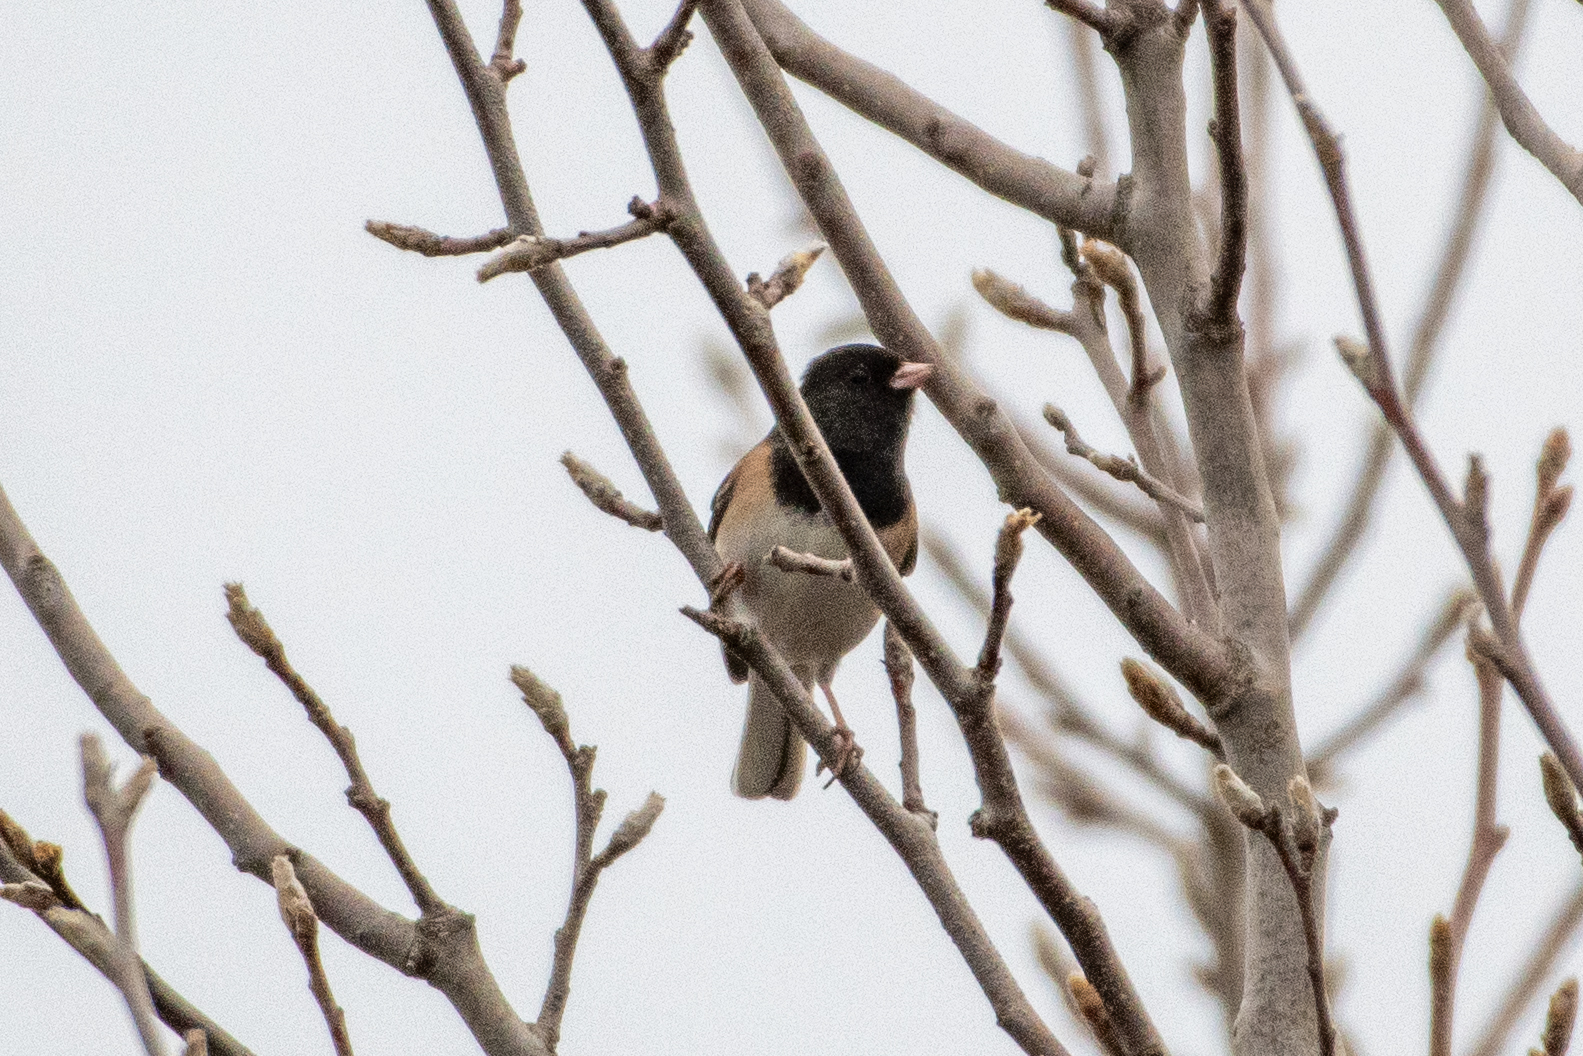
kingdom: Animalia
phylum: Chordata
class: Aves
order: Passeriformes
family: Passerellidae
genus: Junco
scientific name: Junco hyemalis
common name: Dark-eyed junco
